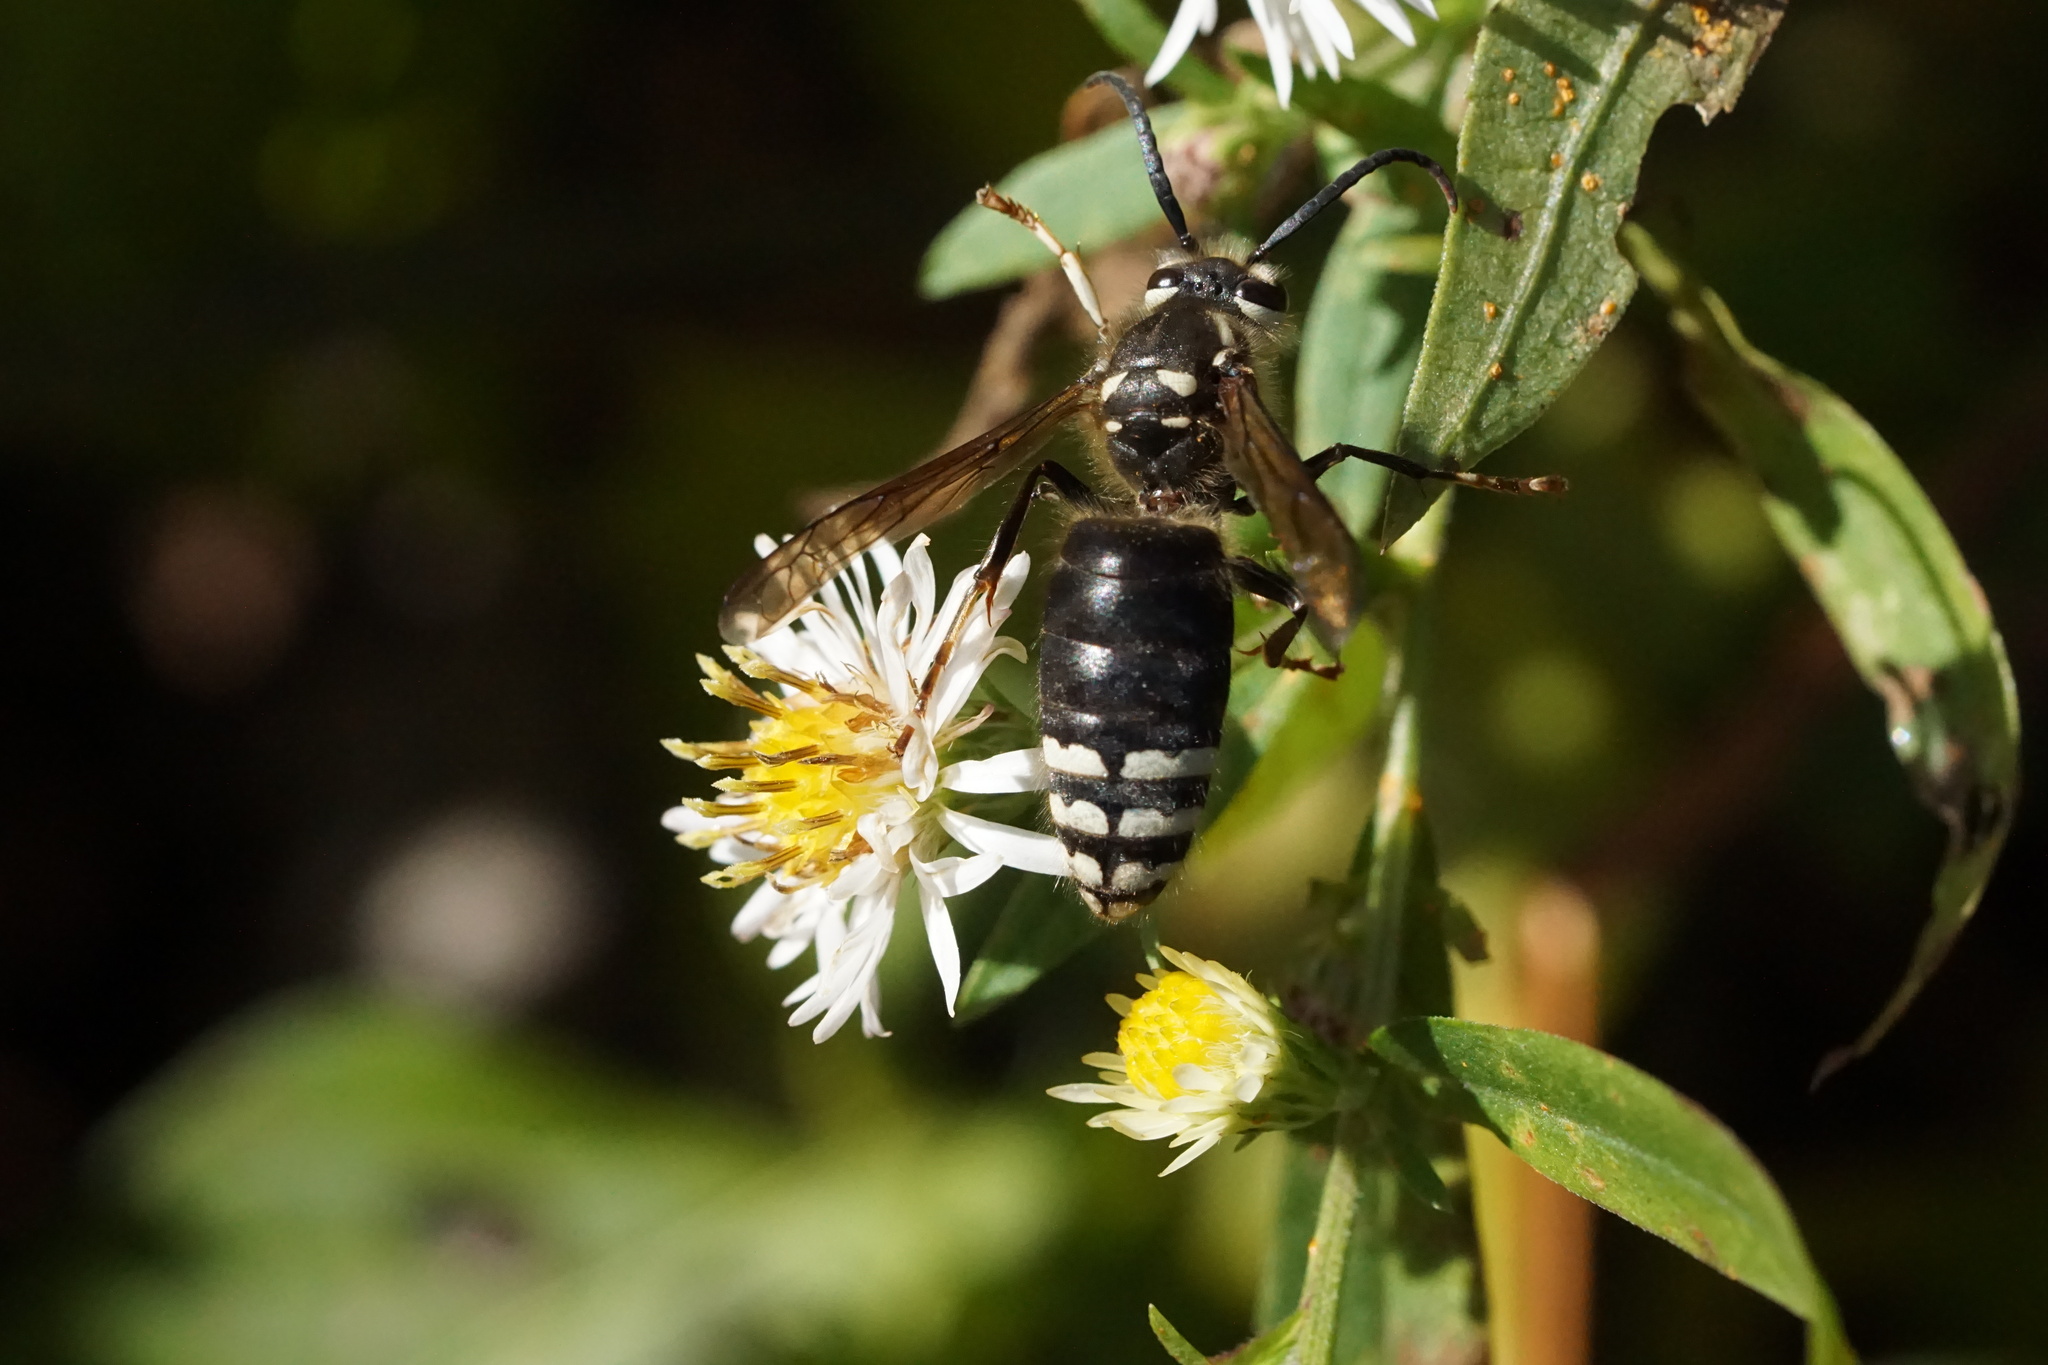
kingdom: Animalia
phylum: Arthropoda
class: Insecta
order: Hymenoptera
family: Vespidae
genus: Dolichovespula
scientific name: Dolichovespula maculata
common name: Bald-faced hornet
